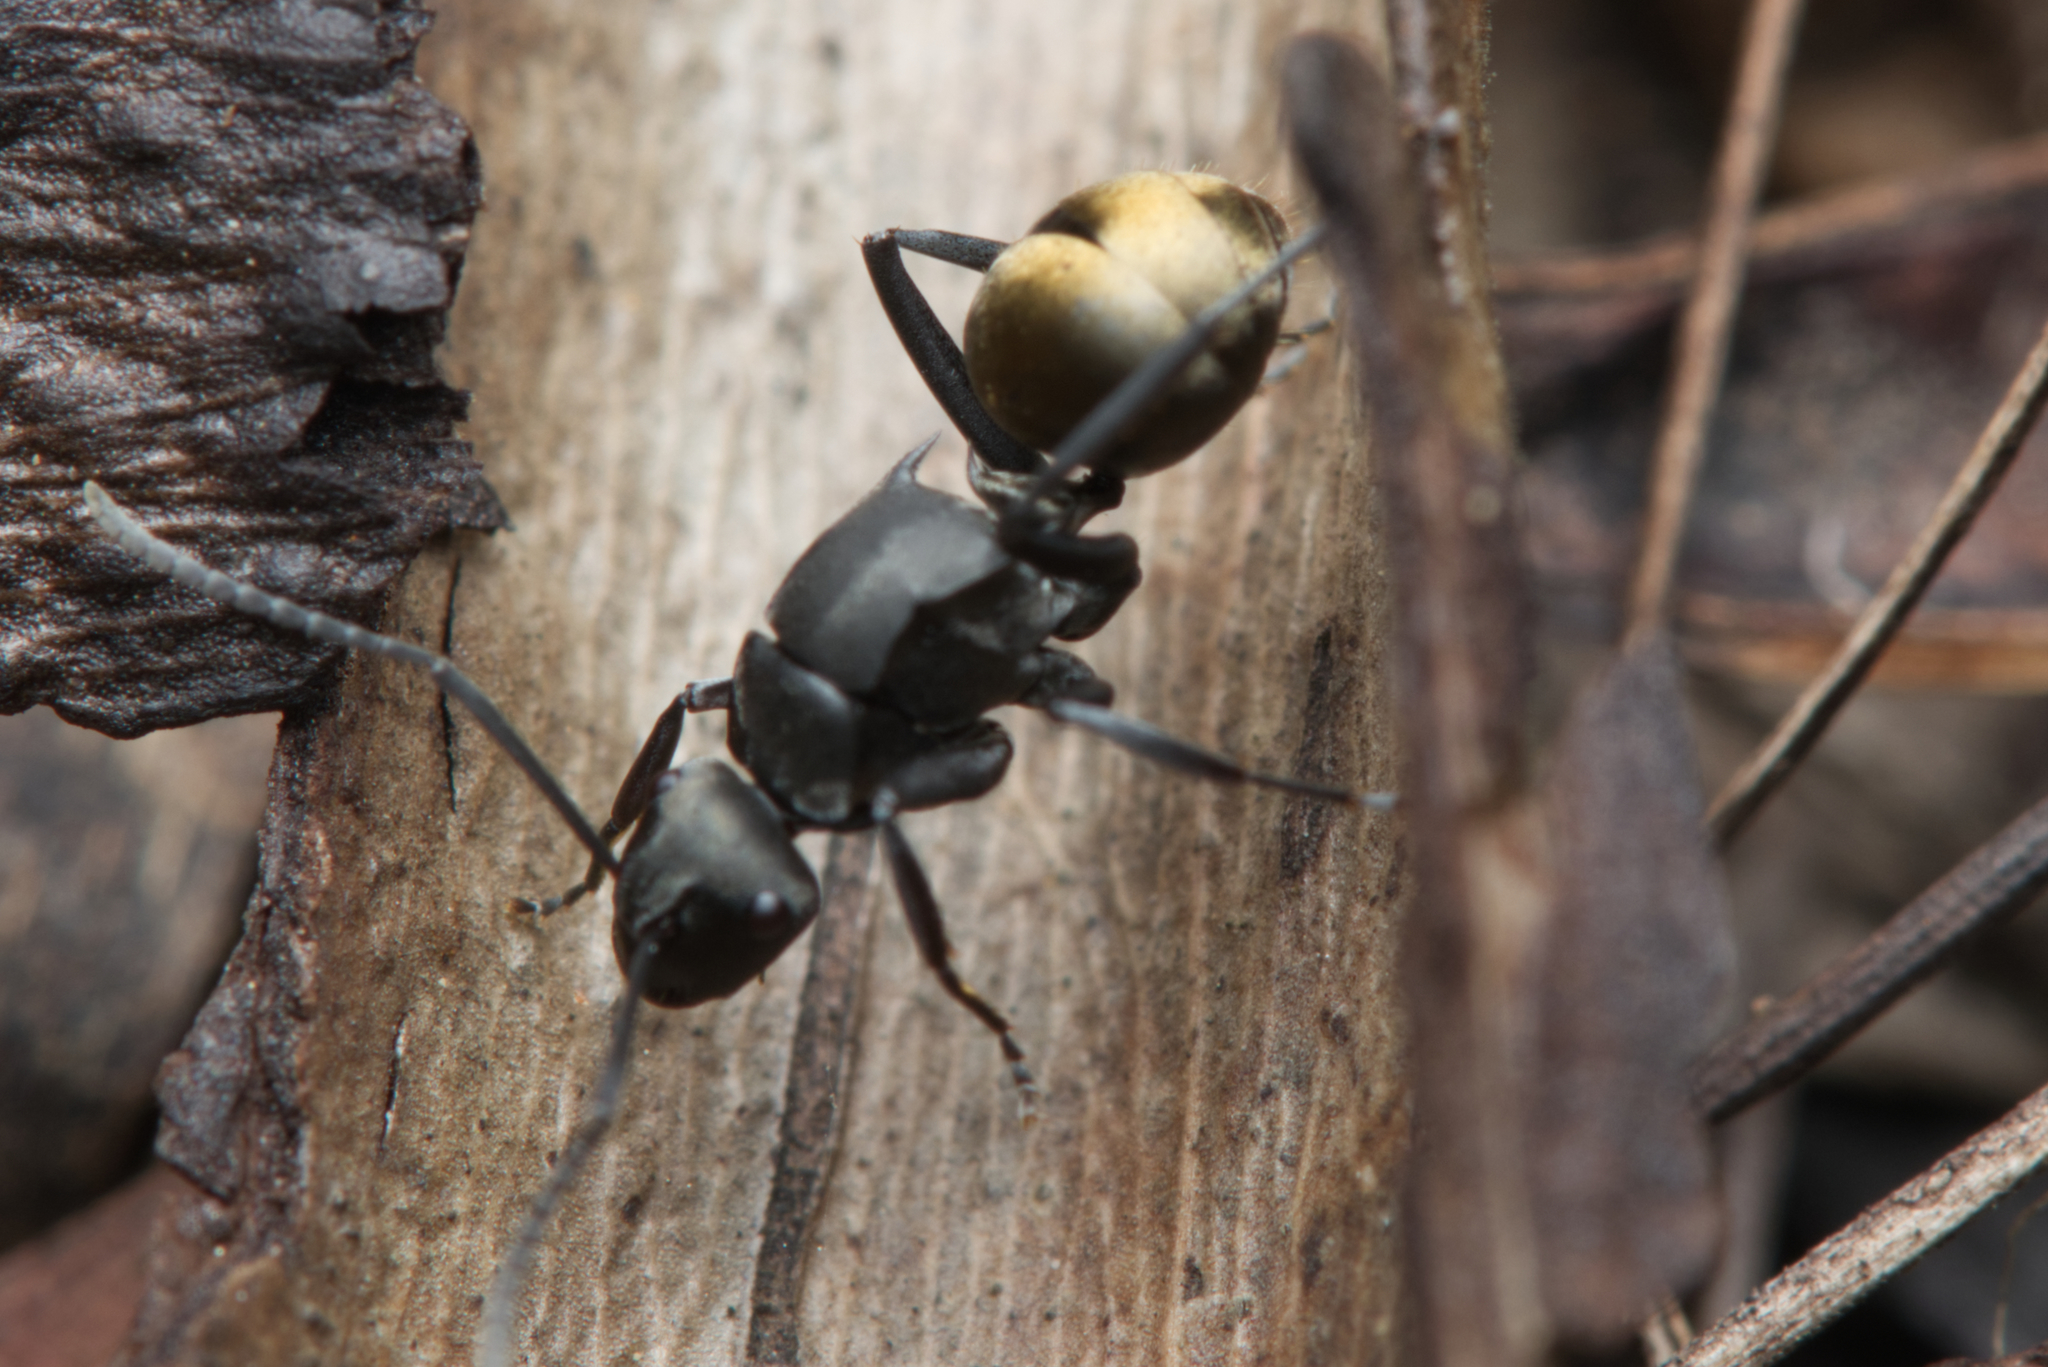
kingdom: Animalia
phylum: Arthropoda
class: Insecta
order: Hymenoptera
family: Formicidae
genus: Polyrhachis
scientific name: Polyrhachis tubifera
